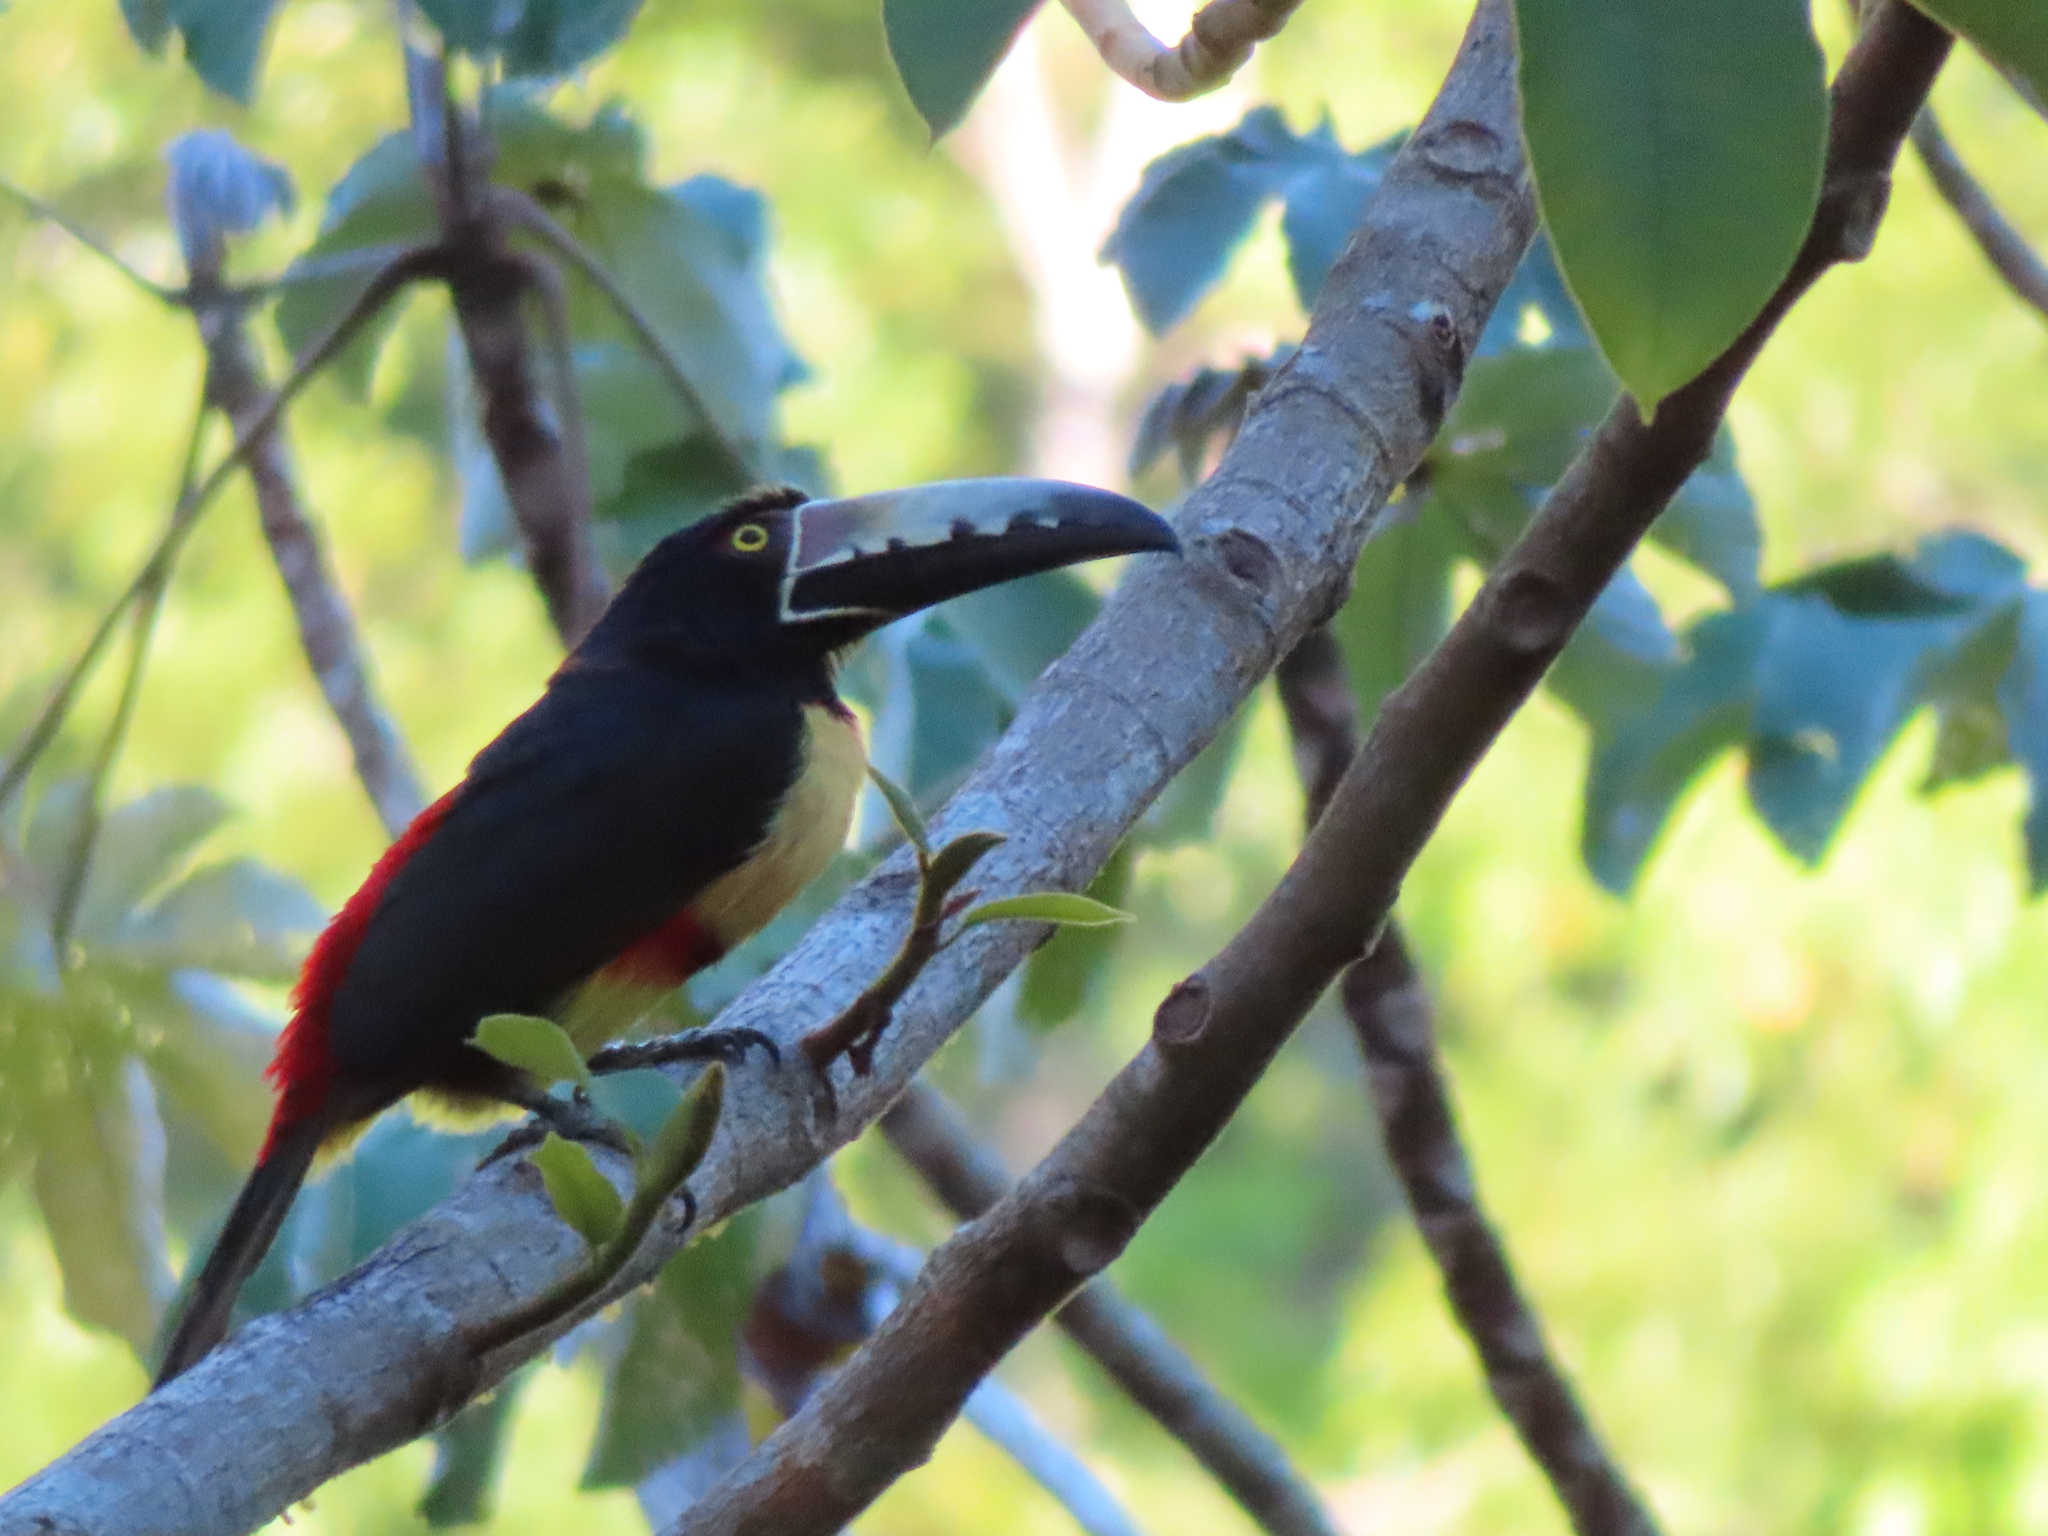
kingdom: Animalia
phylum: Chordata
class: Aves
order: Piciformes
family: Ramphastidae
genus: Pteroglossus
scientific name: Pteroglossus torquatus
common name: Collared aracari
